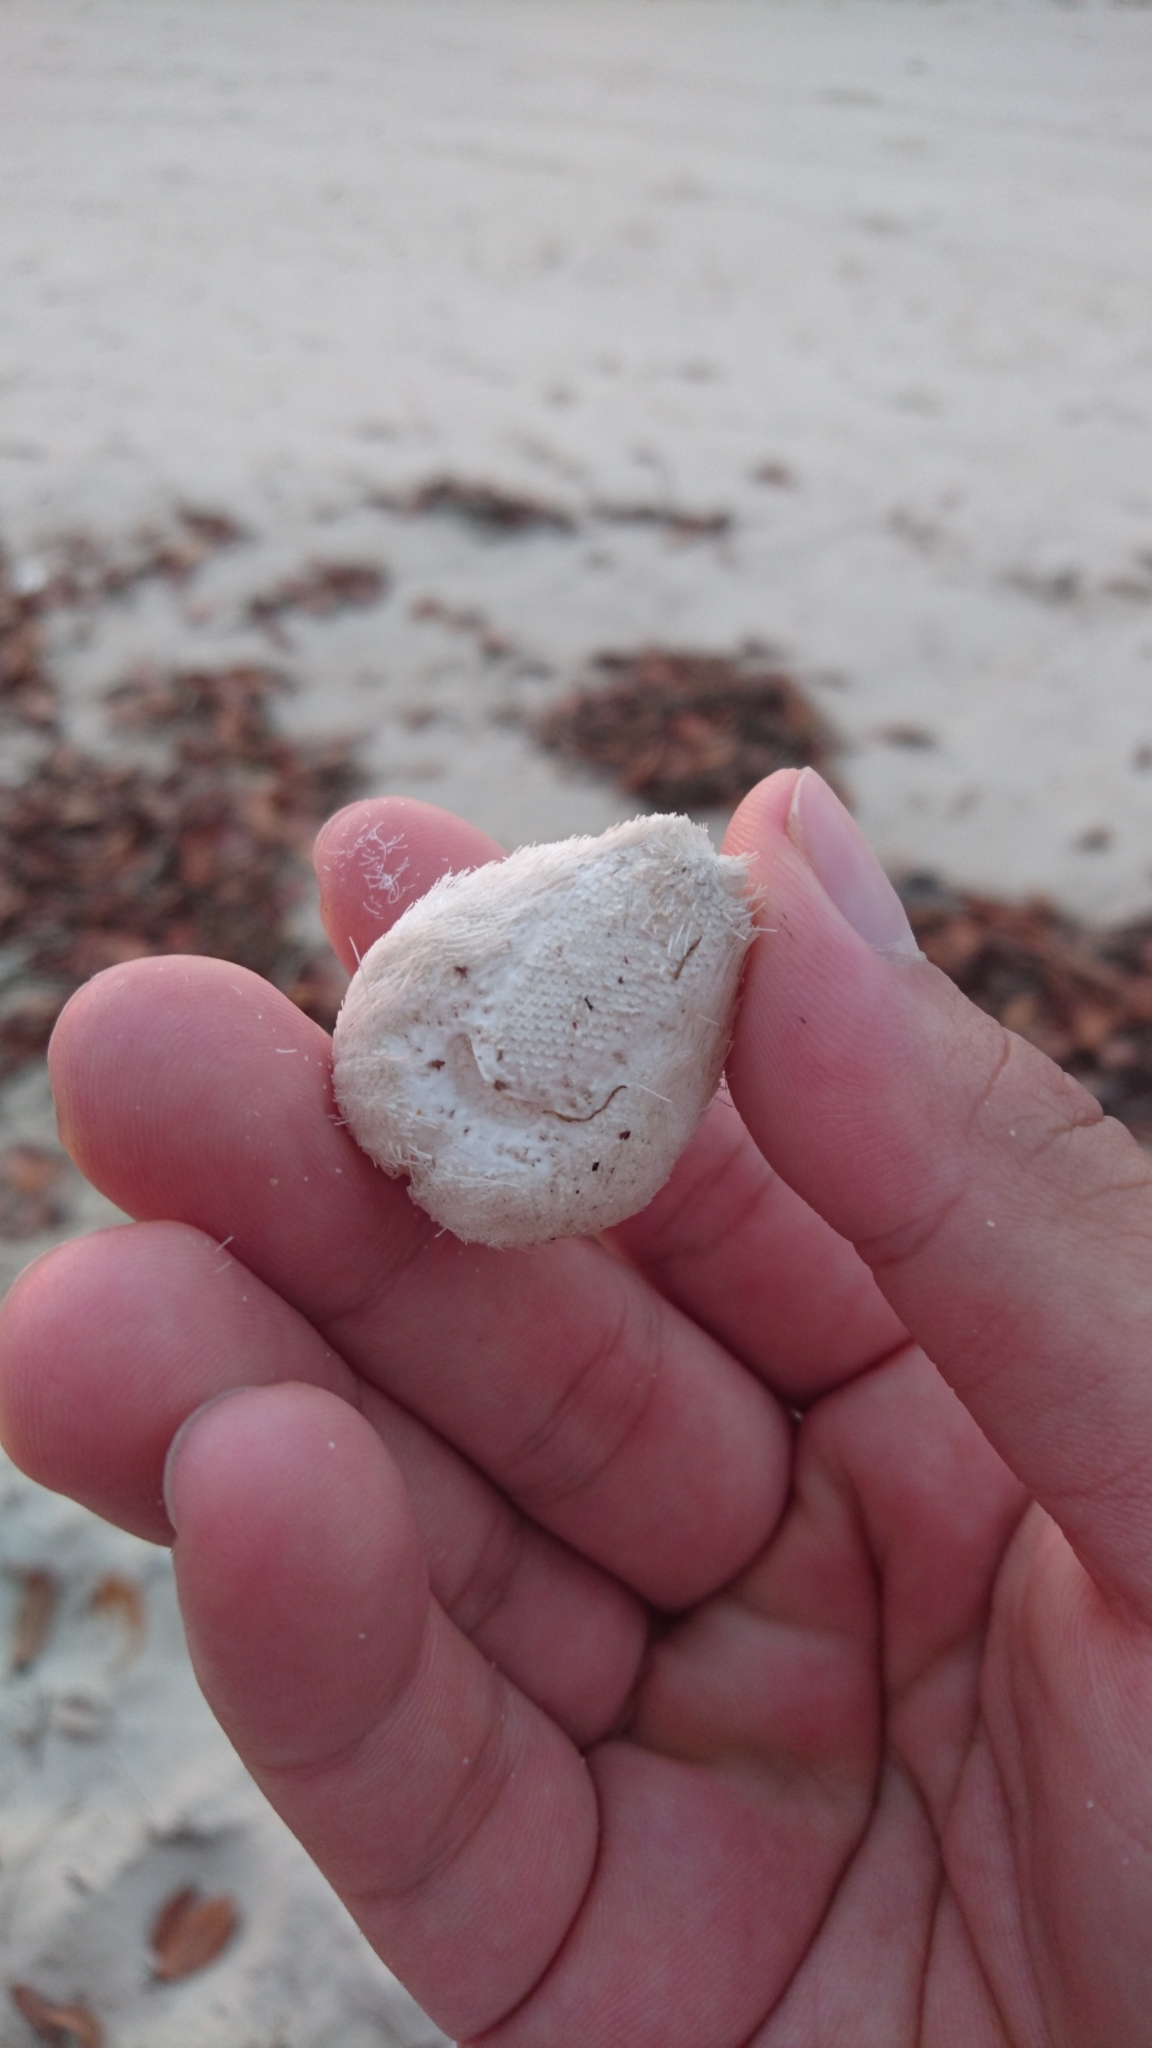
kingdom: Animalia
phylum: Echinodermata
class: Echinoidea
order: Spatangoida
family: Schizasteridae
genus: Moira
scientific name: Moira lethe
